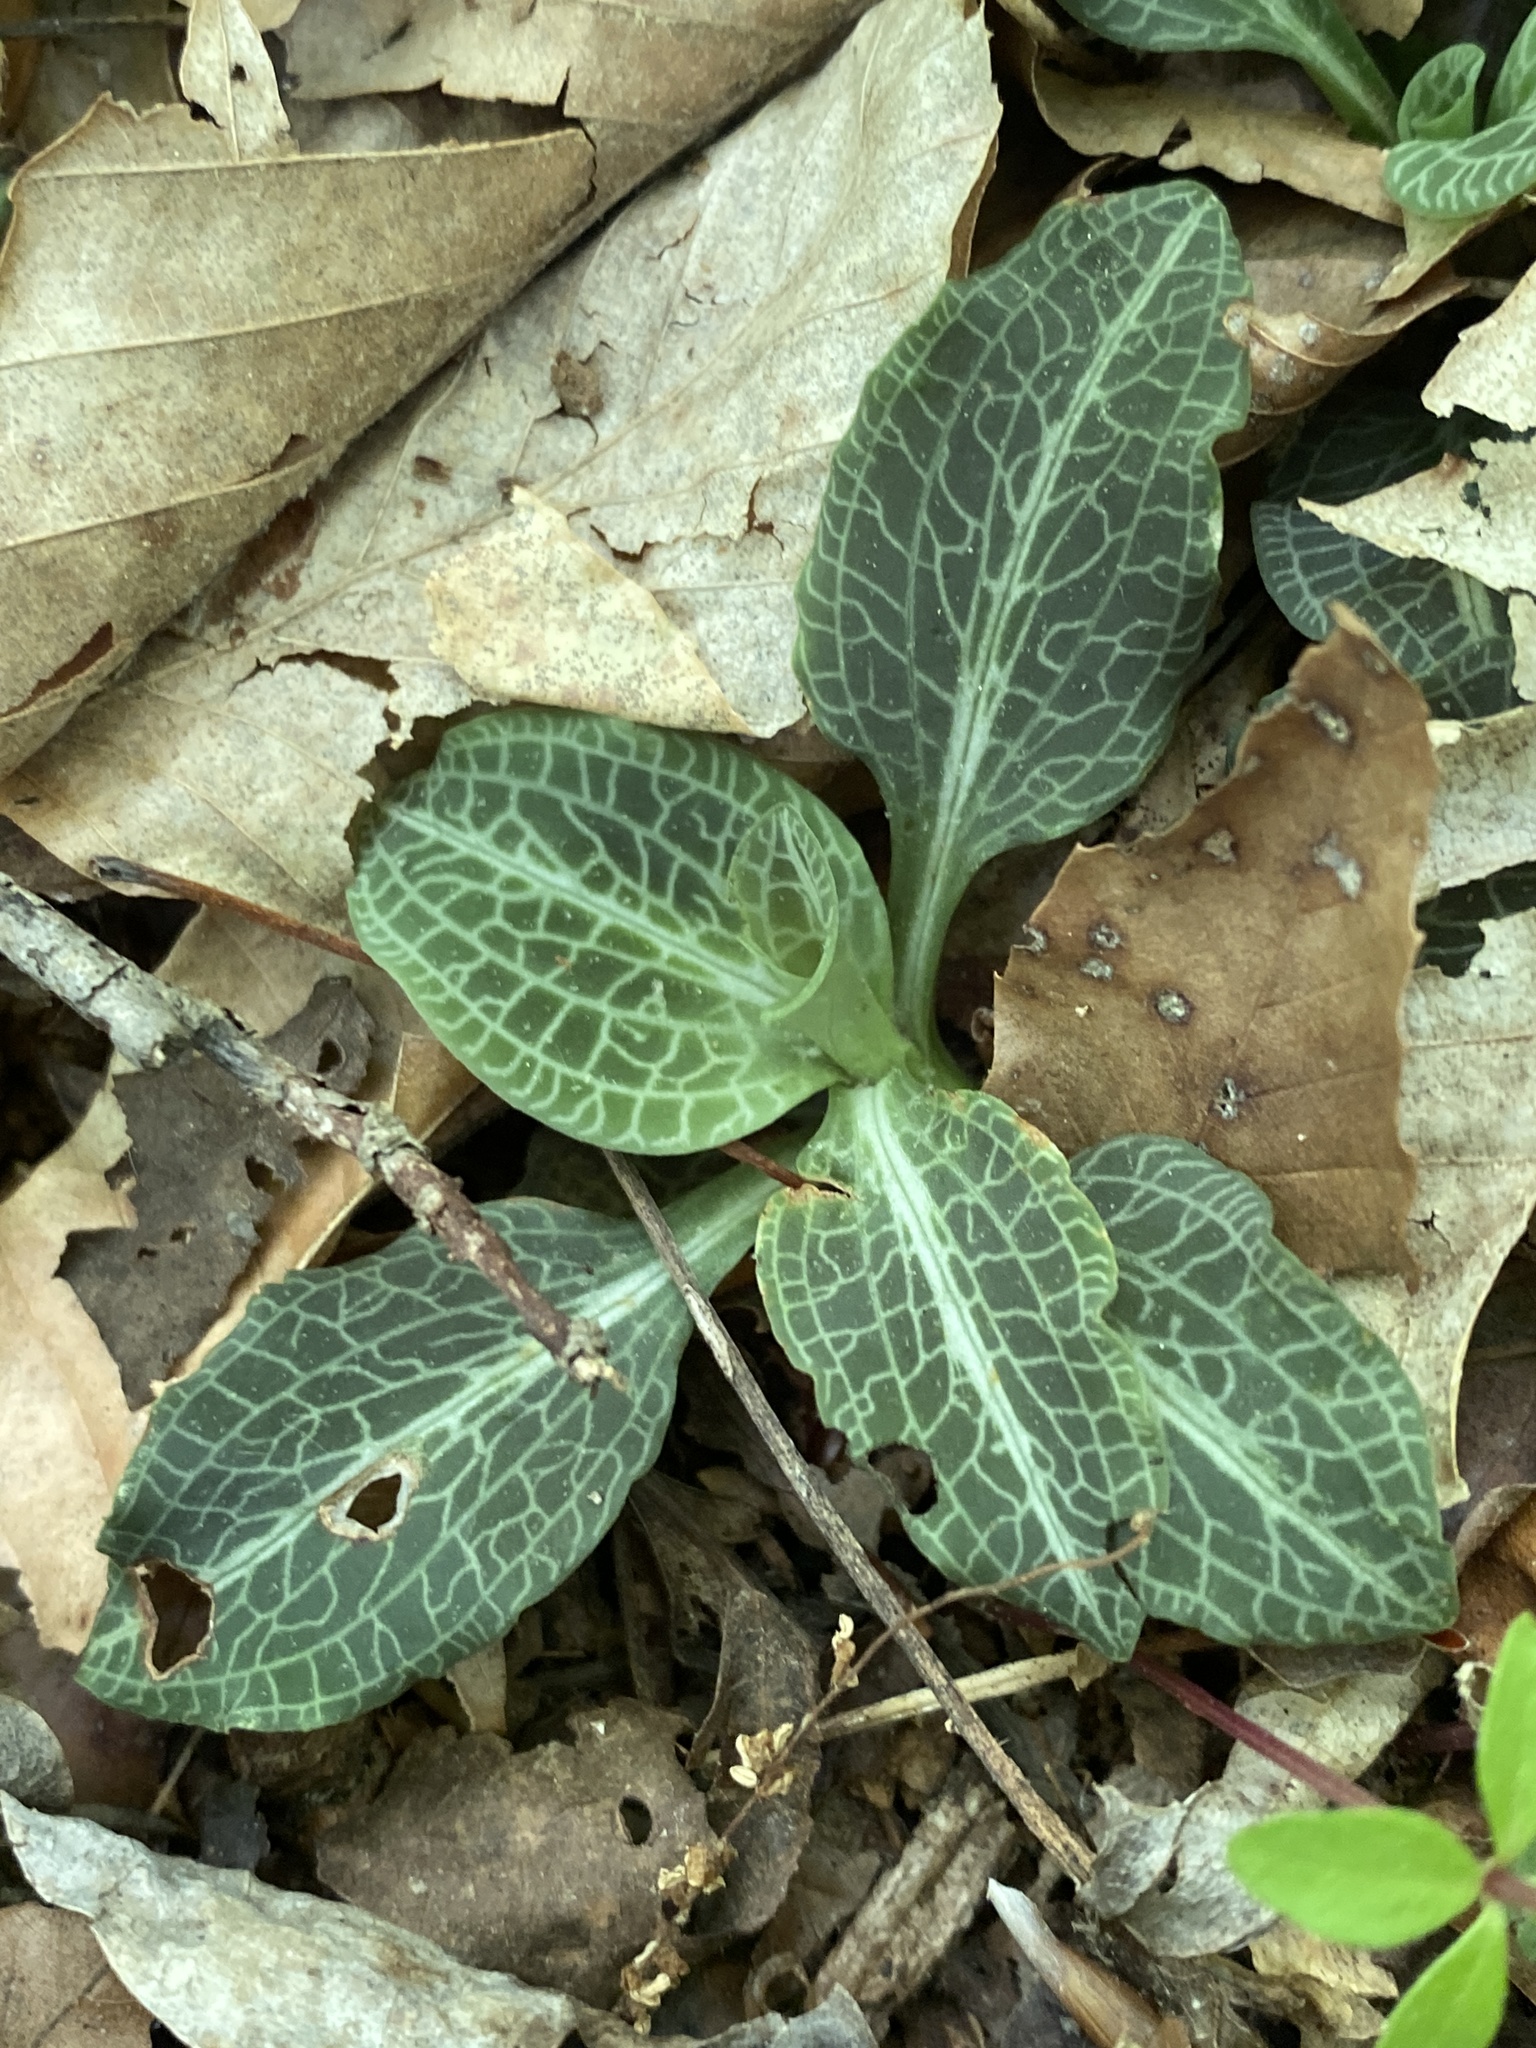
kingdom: Plantae
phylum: Tracheophyta
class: Liliopsida
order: Asparagales
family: Orchidaceae
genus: Goodyera
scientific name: Goodyera pubescens
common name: Downy rattlesnake-plantain
